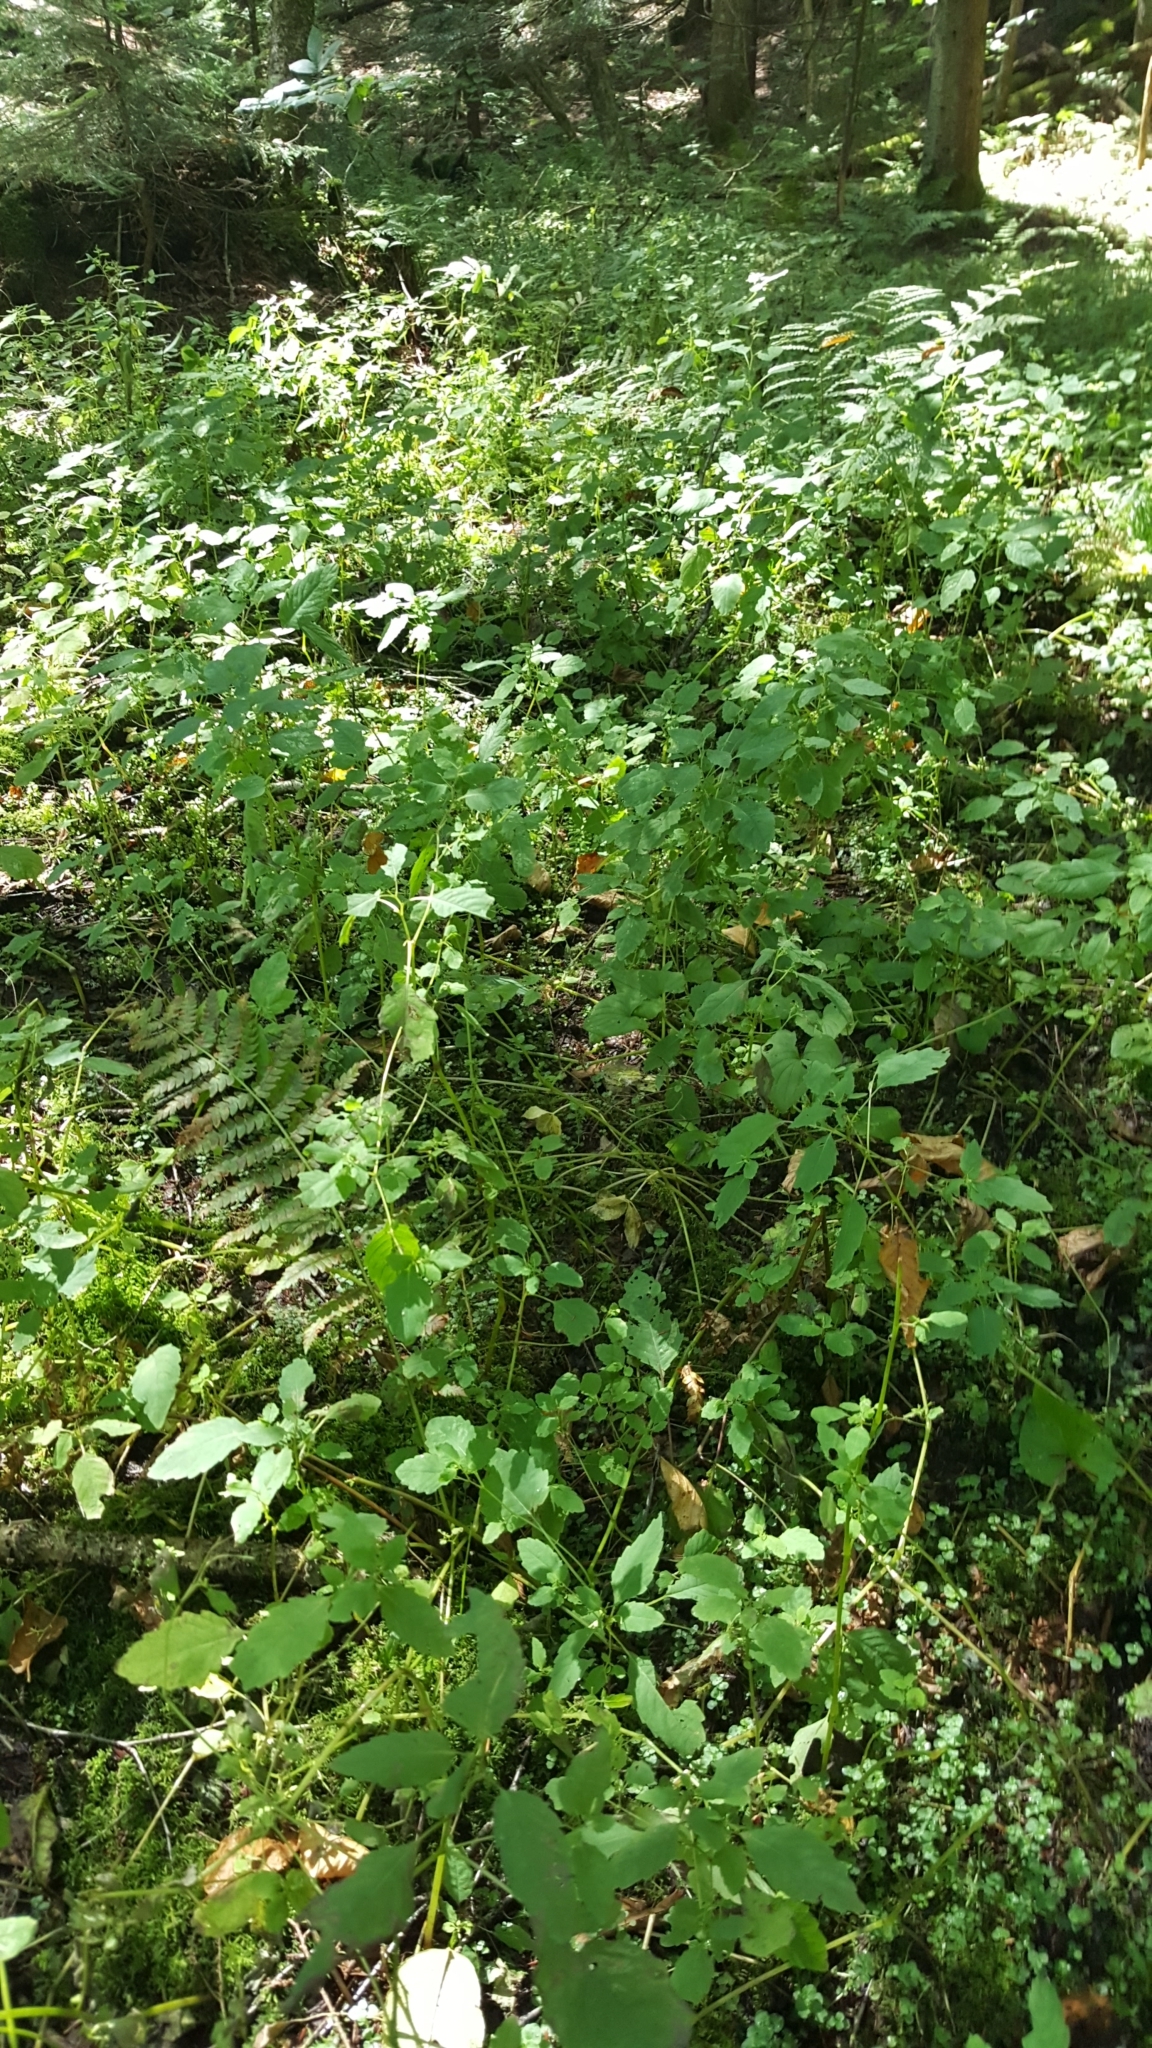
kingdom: Plantae
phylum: Tracheophyta
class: Magnoliopsida
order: Ericales
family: Balsaminaceae
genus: Impatiens
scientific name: Impatiens capensis
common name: Orange balsam
